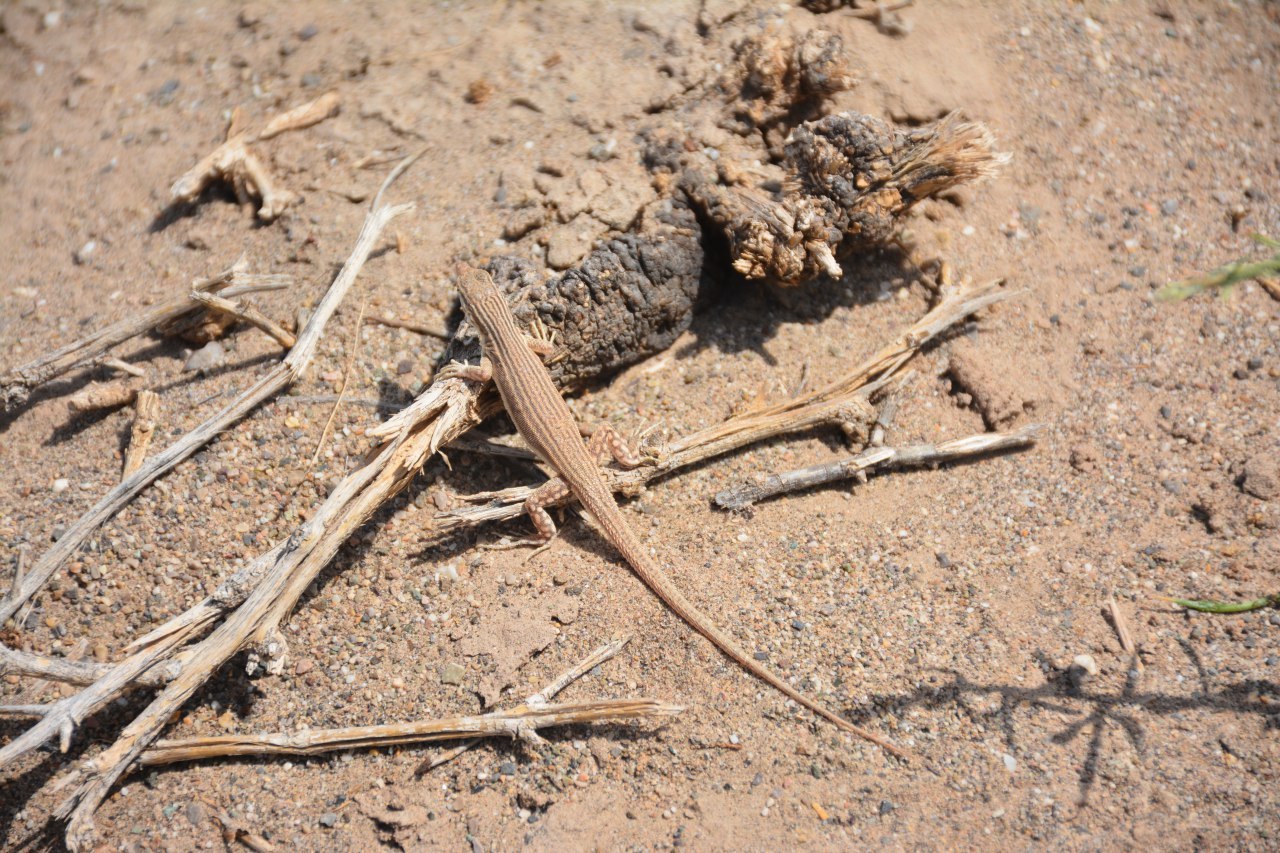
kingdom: Animalia
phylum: Chordata
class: Squamata
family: Lacertidae
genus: Eremias
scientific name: Eremias lineolata
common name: Striped racerunner
